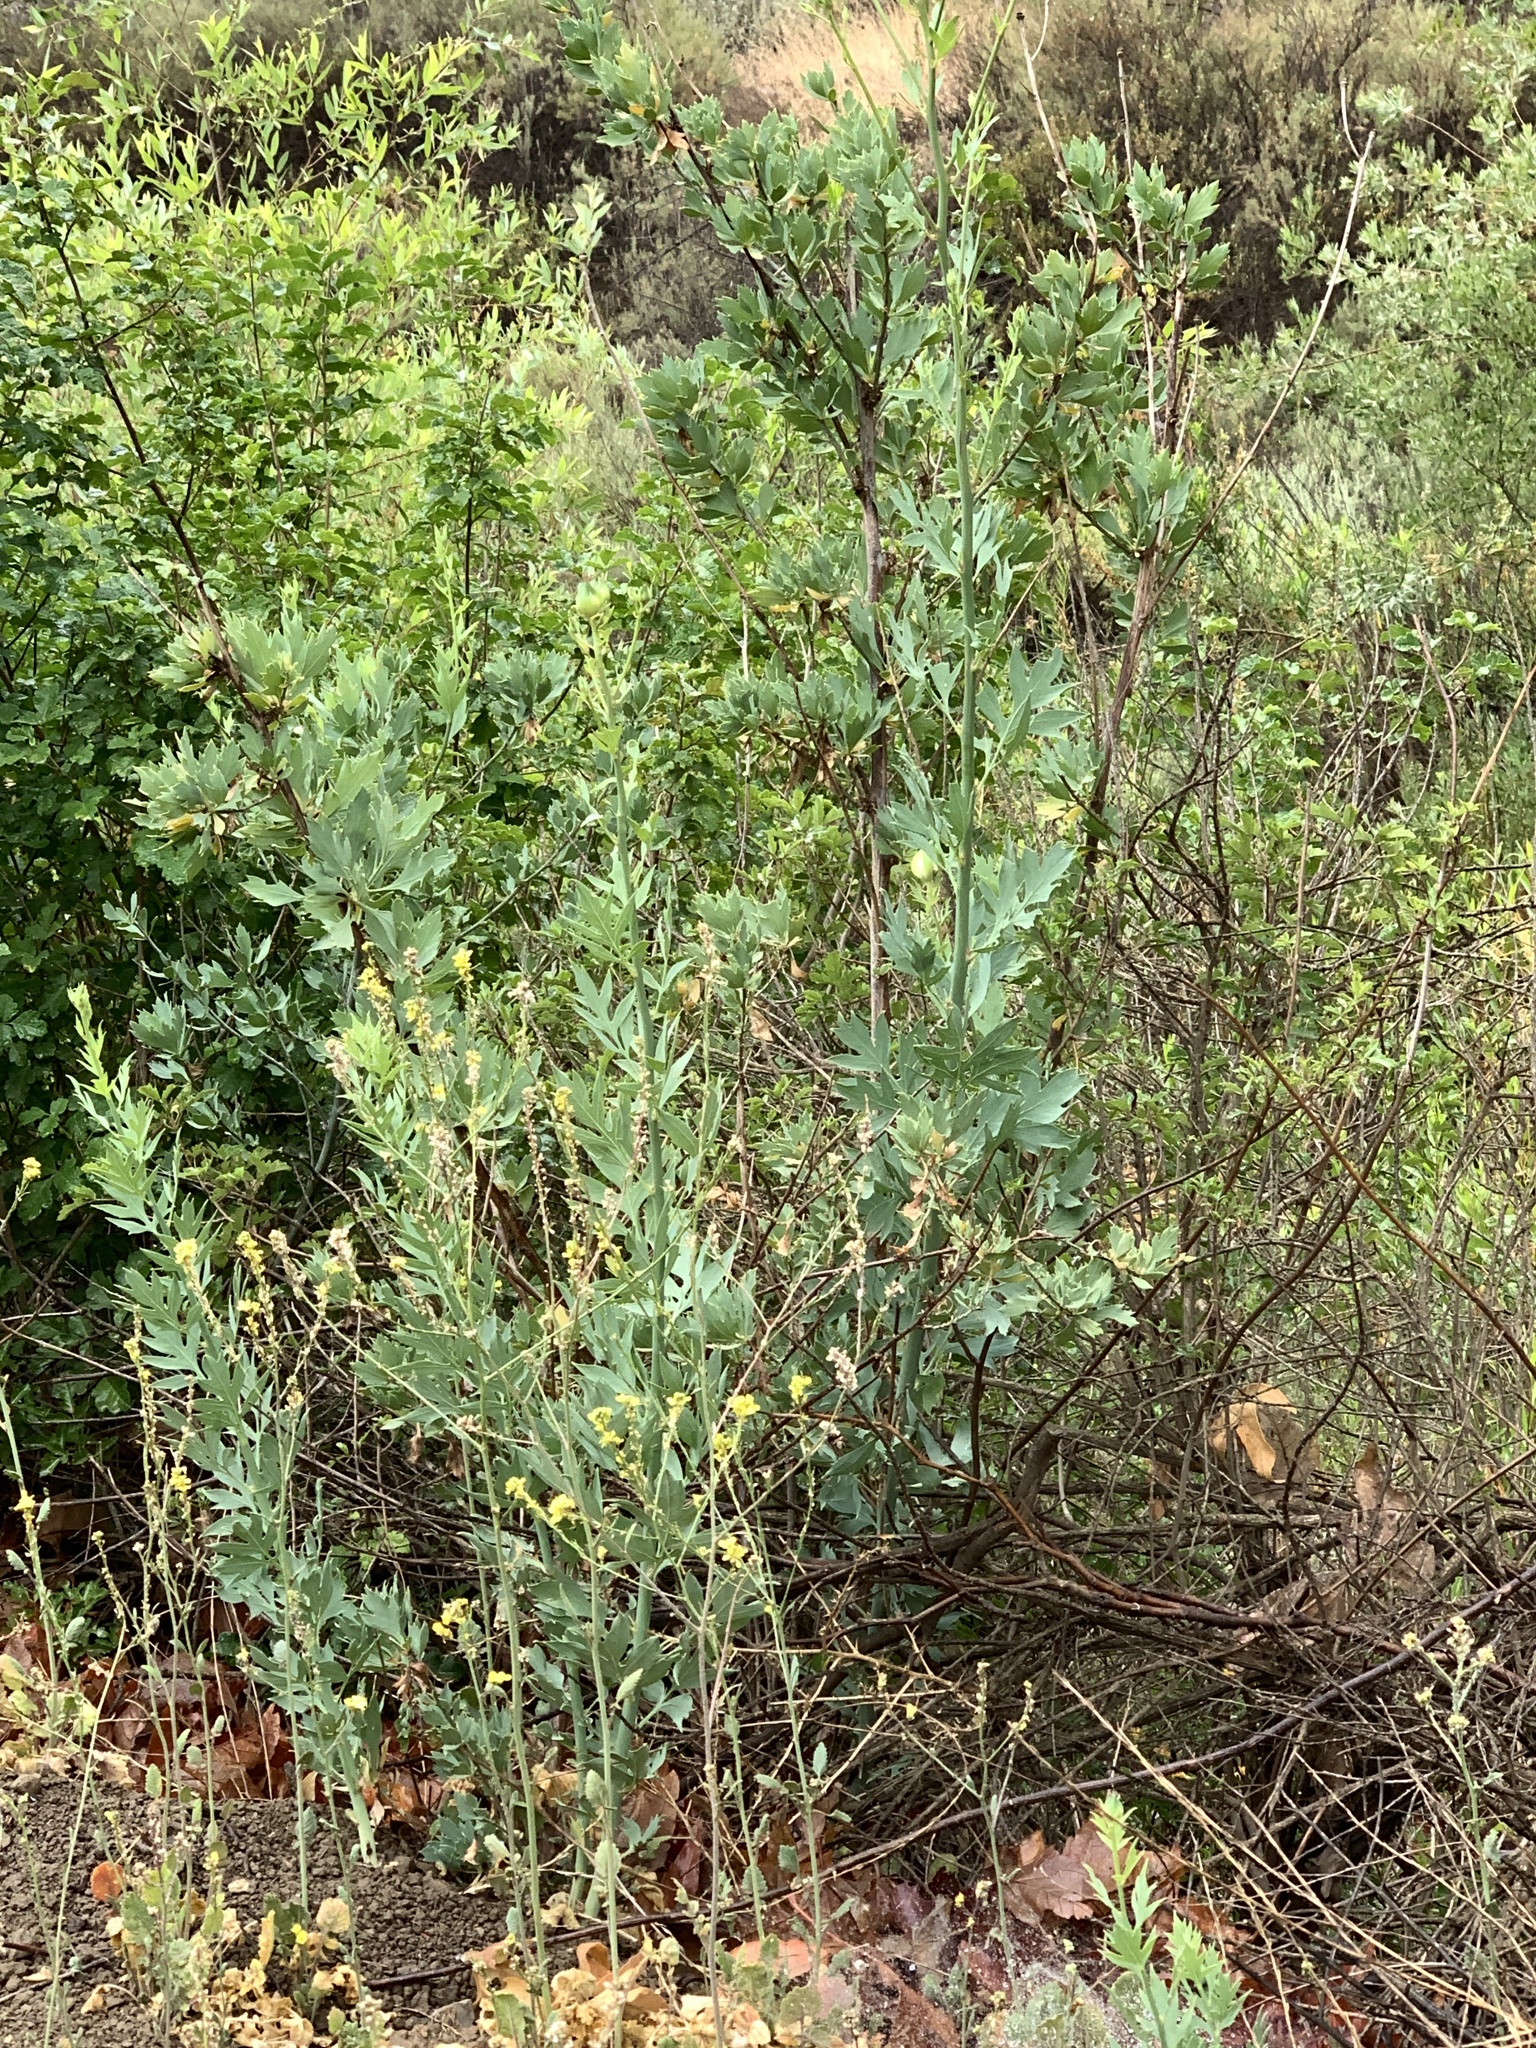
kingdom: Plantae
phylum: Tracheophyta
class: Magnoliopsida
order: Ranunculales
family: Papaveraceae
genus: Romneya
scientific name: Romneya coulteri
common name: California tree-poppy
